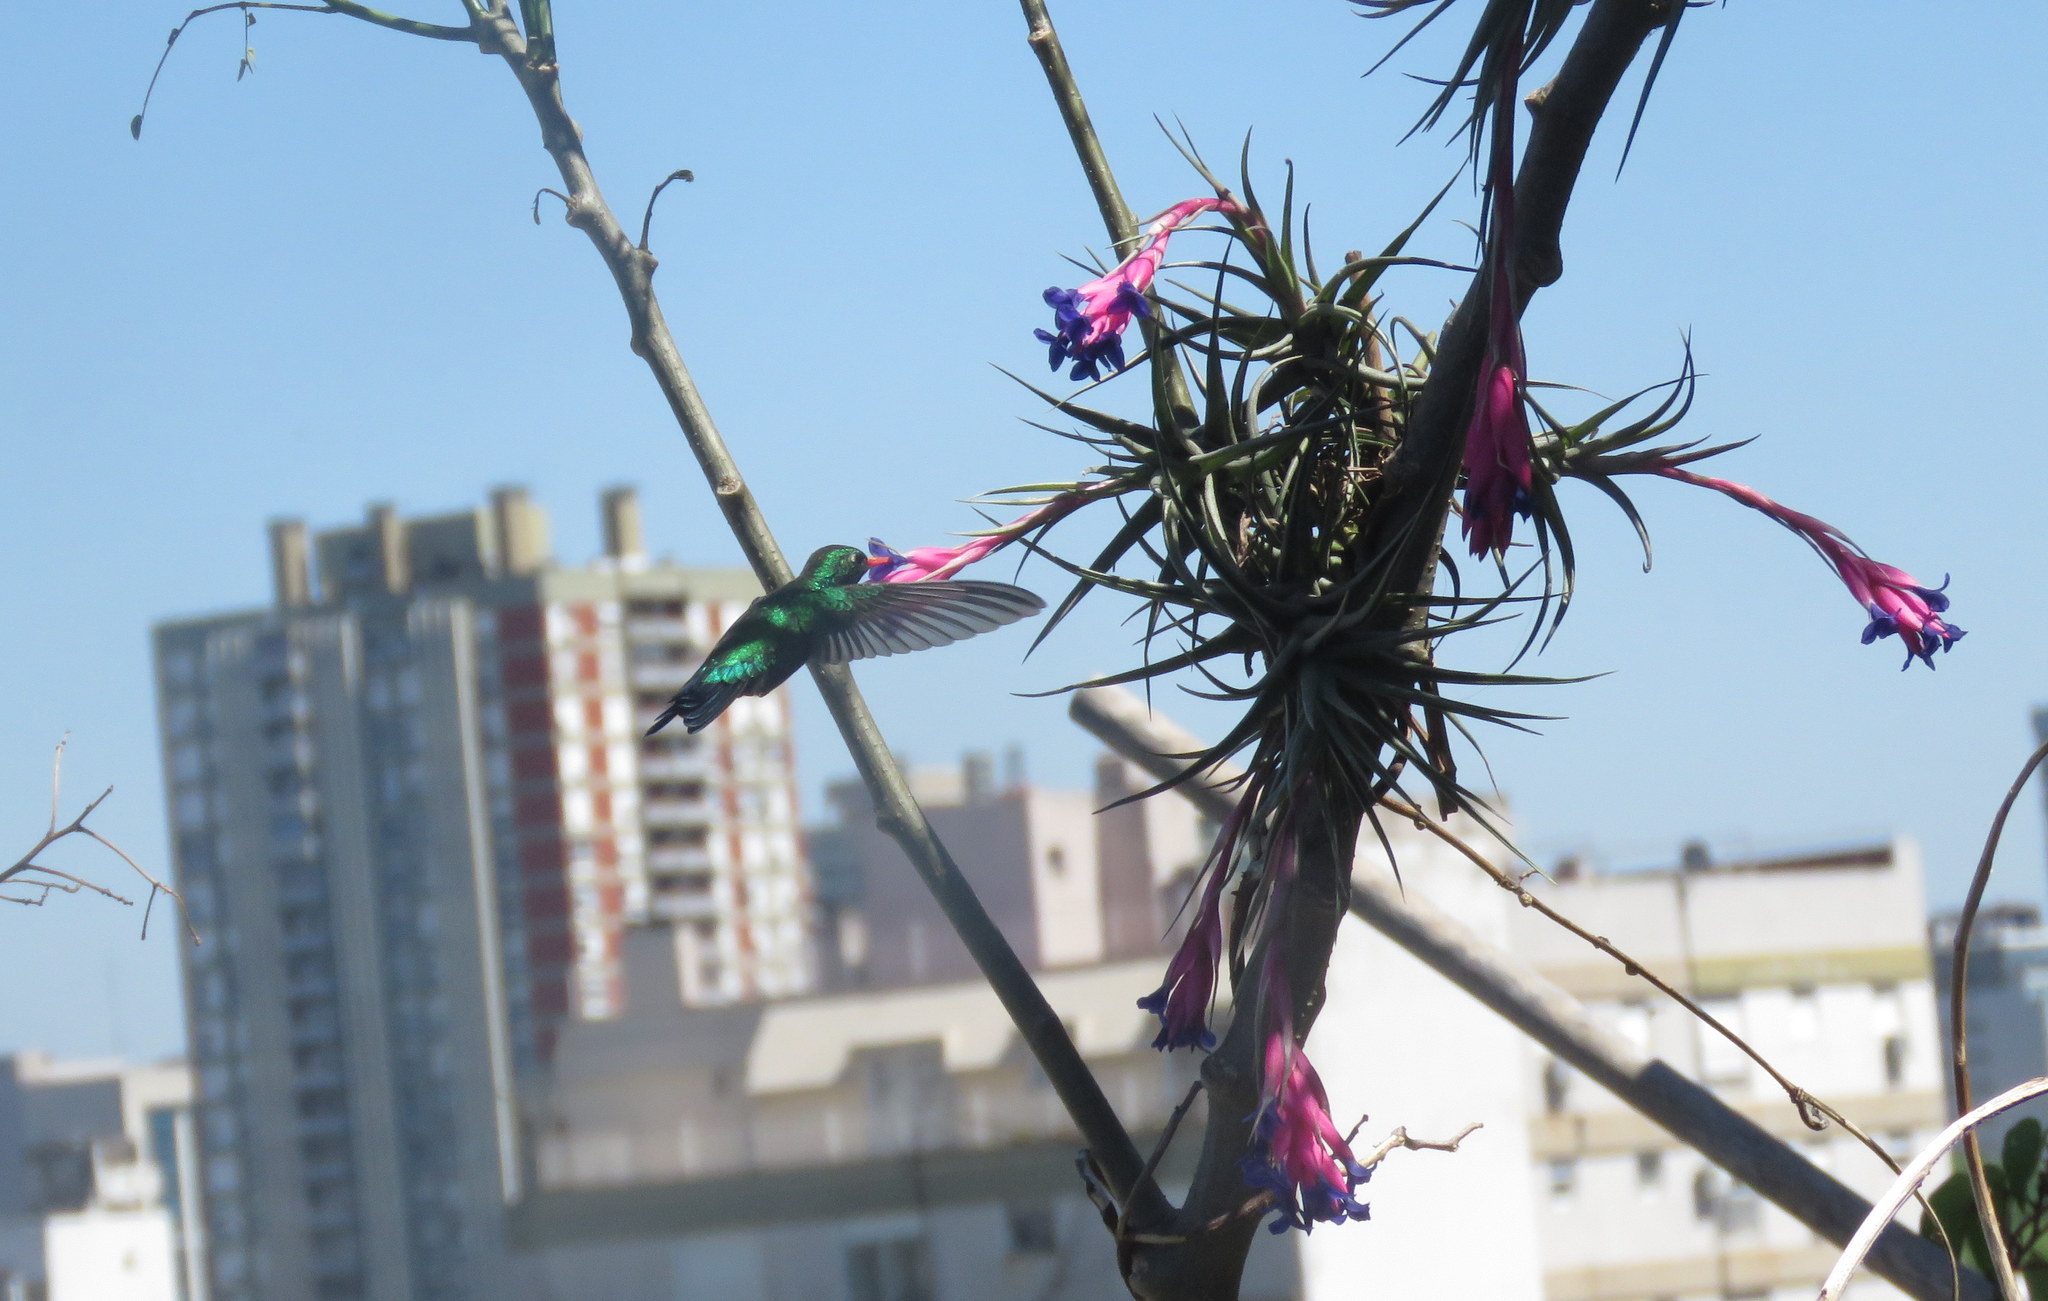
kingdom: Animalia
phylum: Chordata
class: Aves
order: Apodiformes
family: Trochilidae
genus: Chlorostilbon
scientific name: Chlorostilbon lucidus
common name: Glittering-bellied emerald
